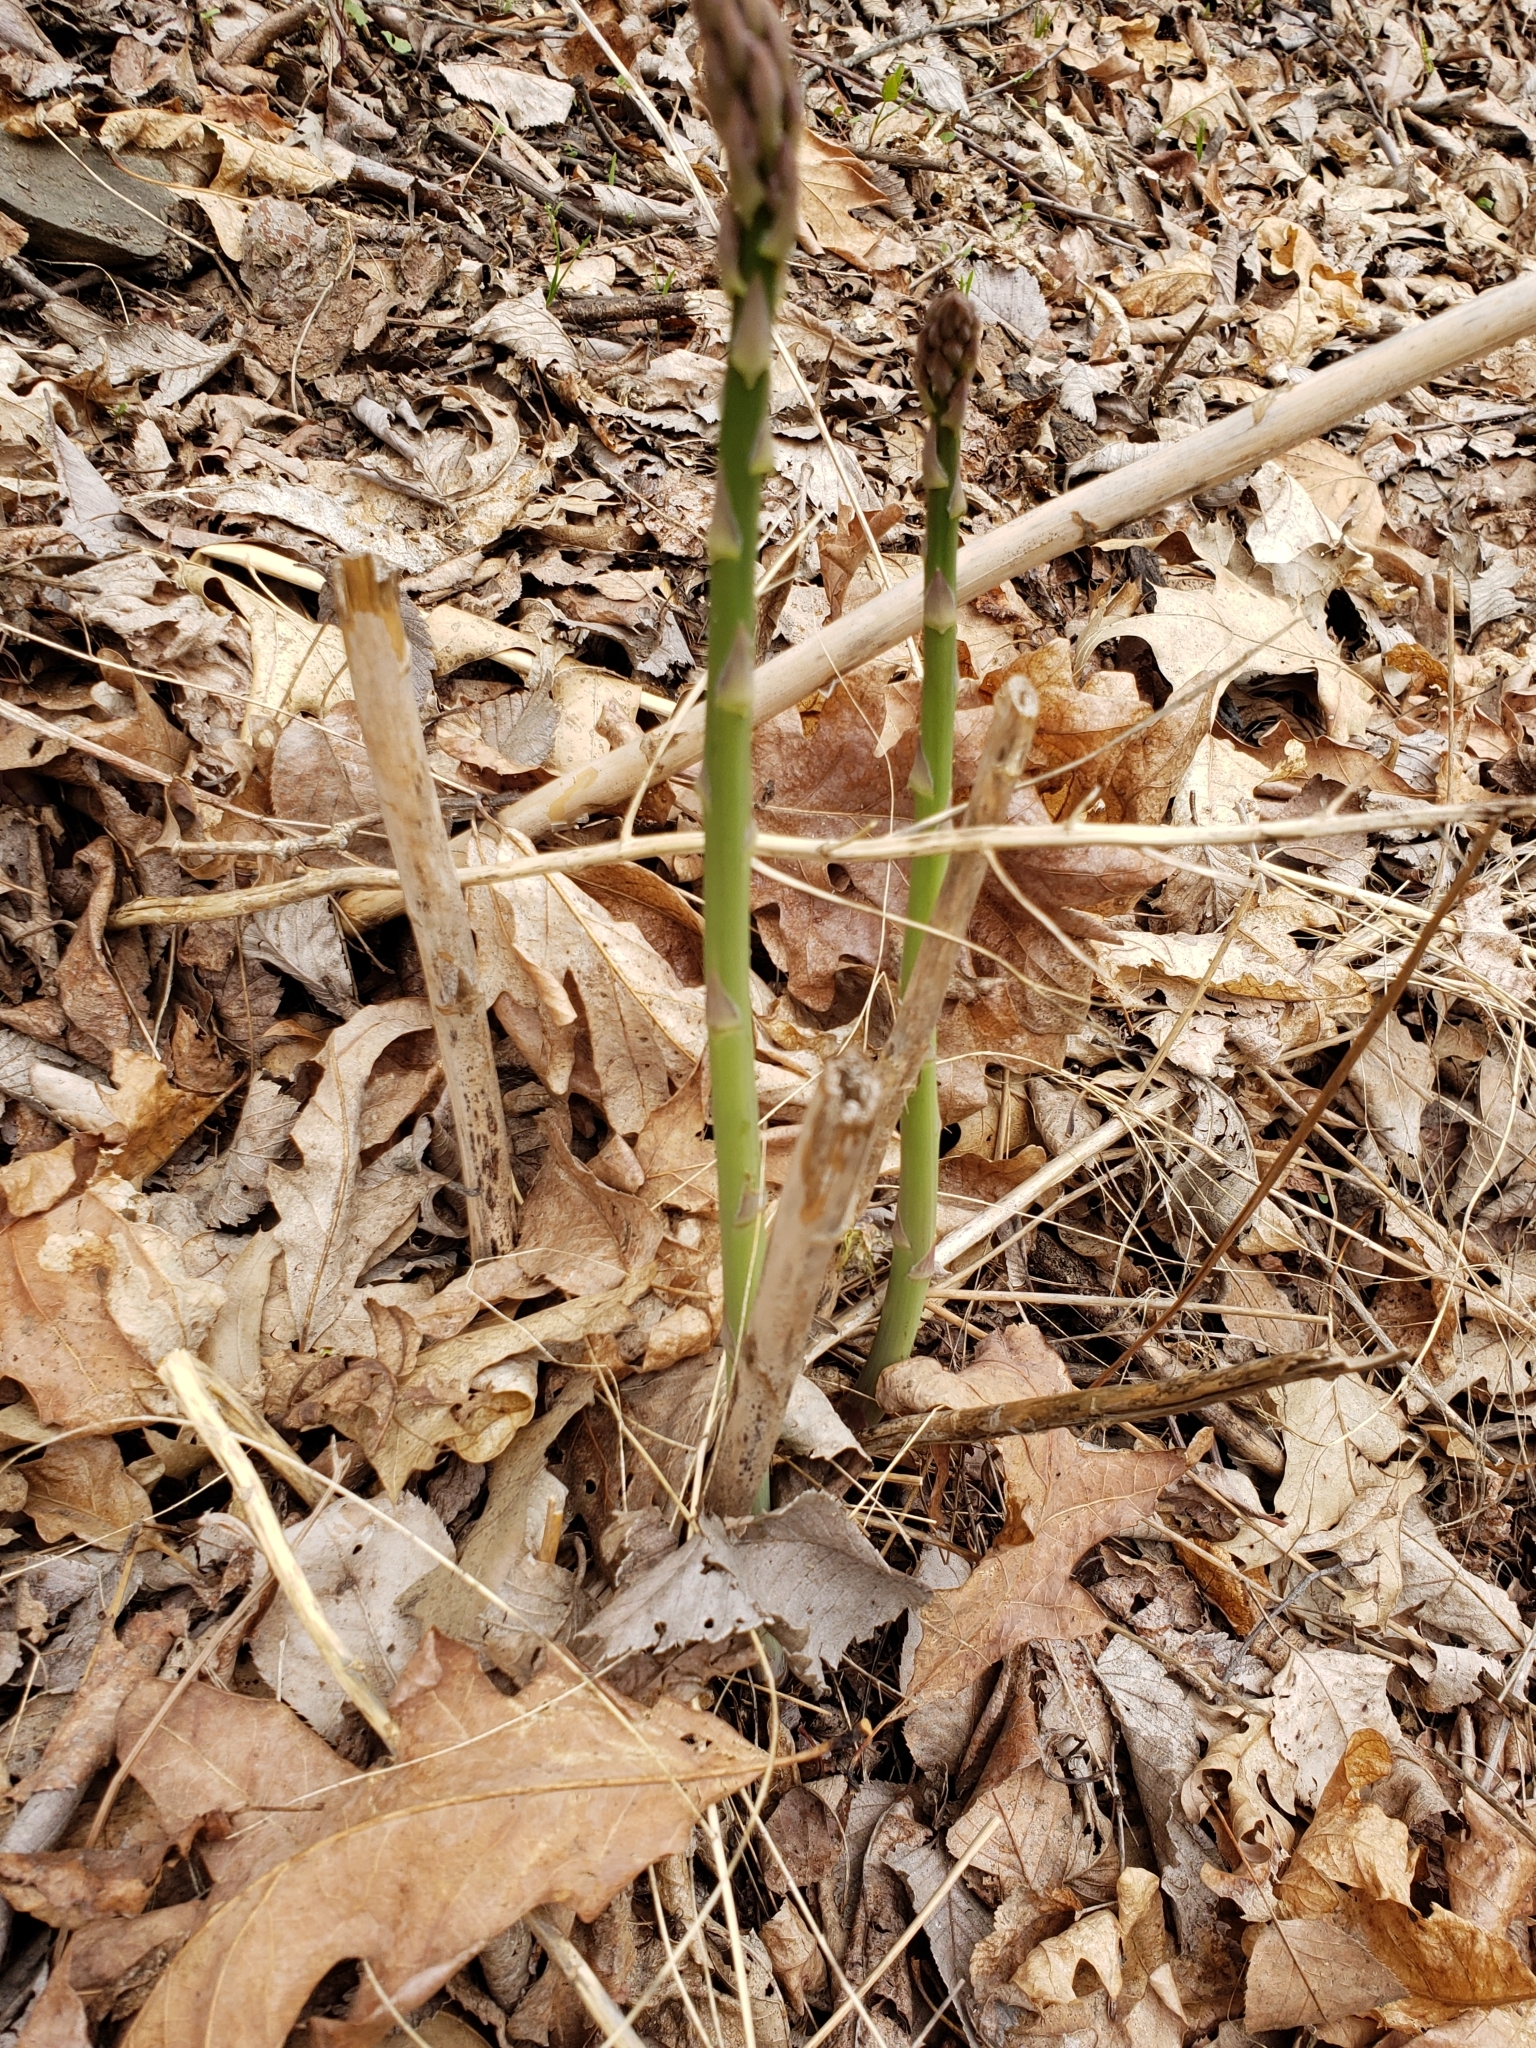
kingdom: Plantae
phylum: Tracheophyta
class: Liliopsida
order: Asparagales
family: Asparagaceae
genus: Asparagus
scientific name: Asparagus officinalis
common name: Garden asparagus
